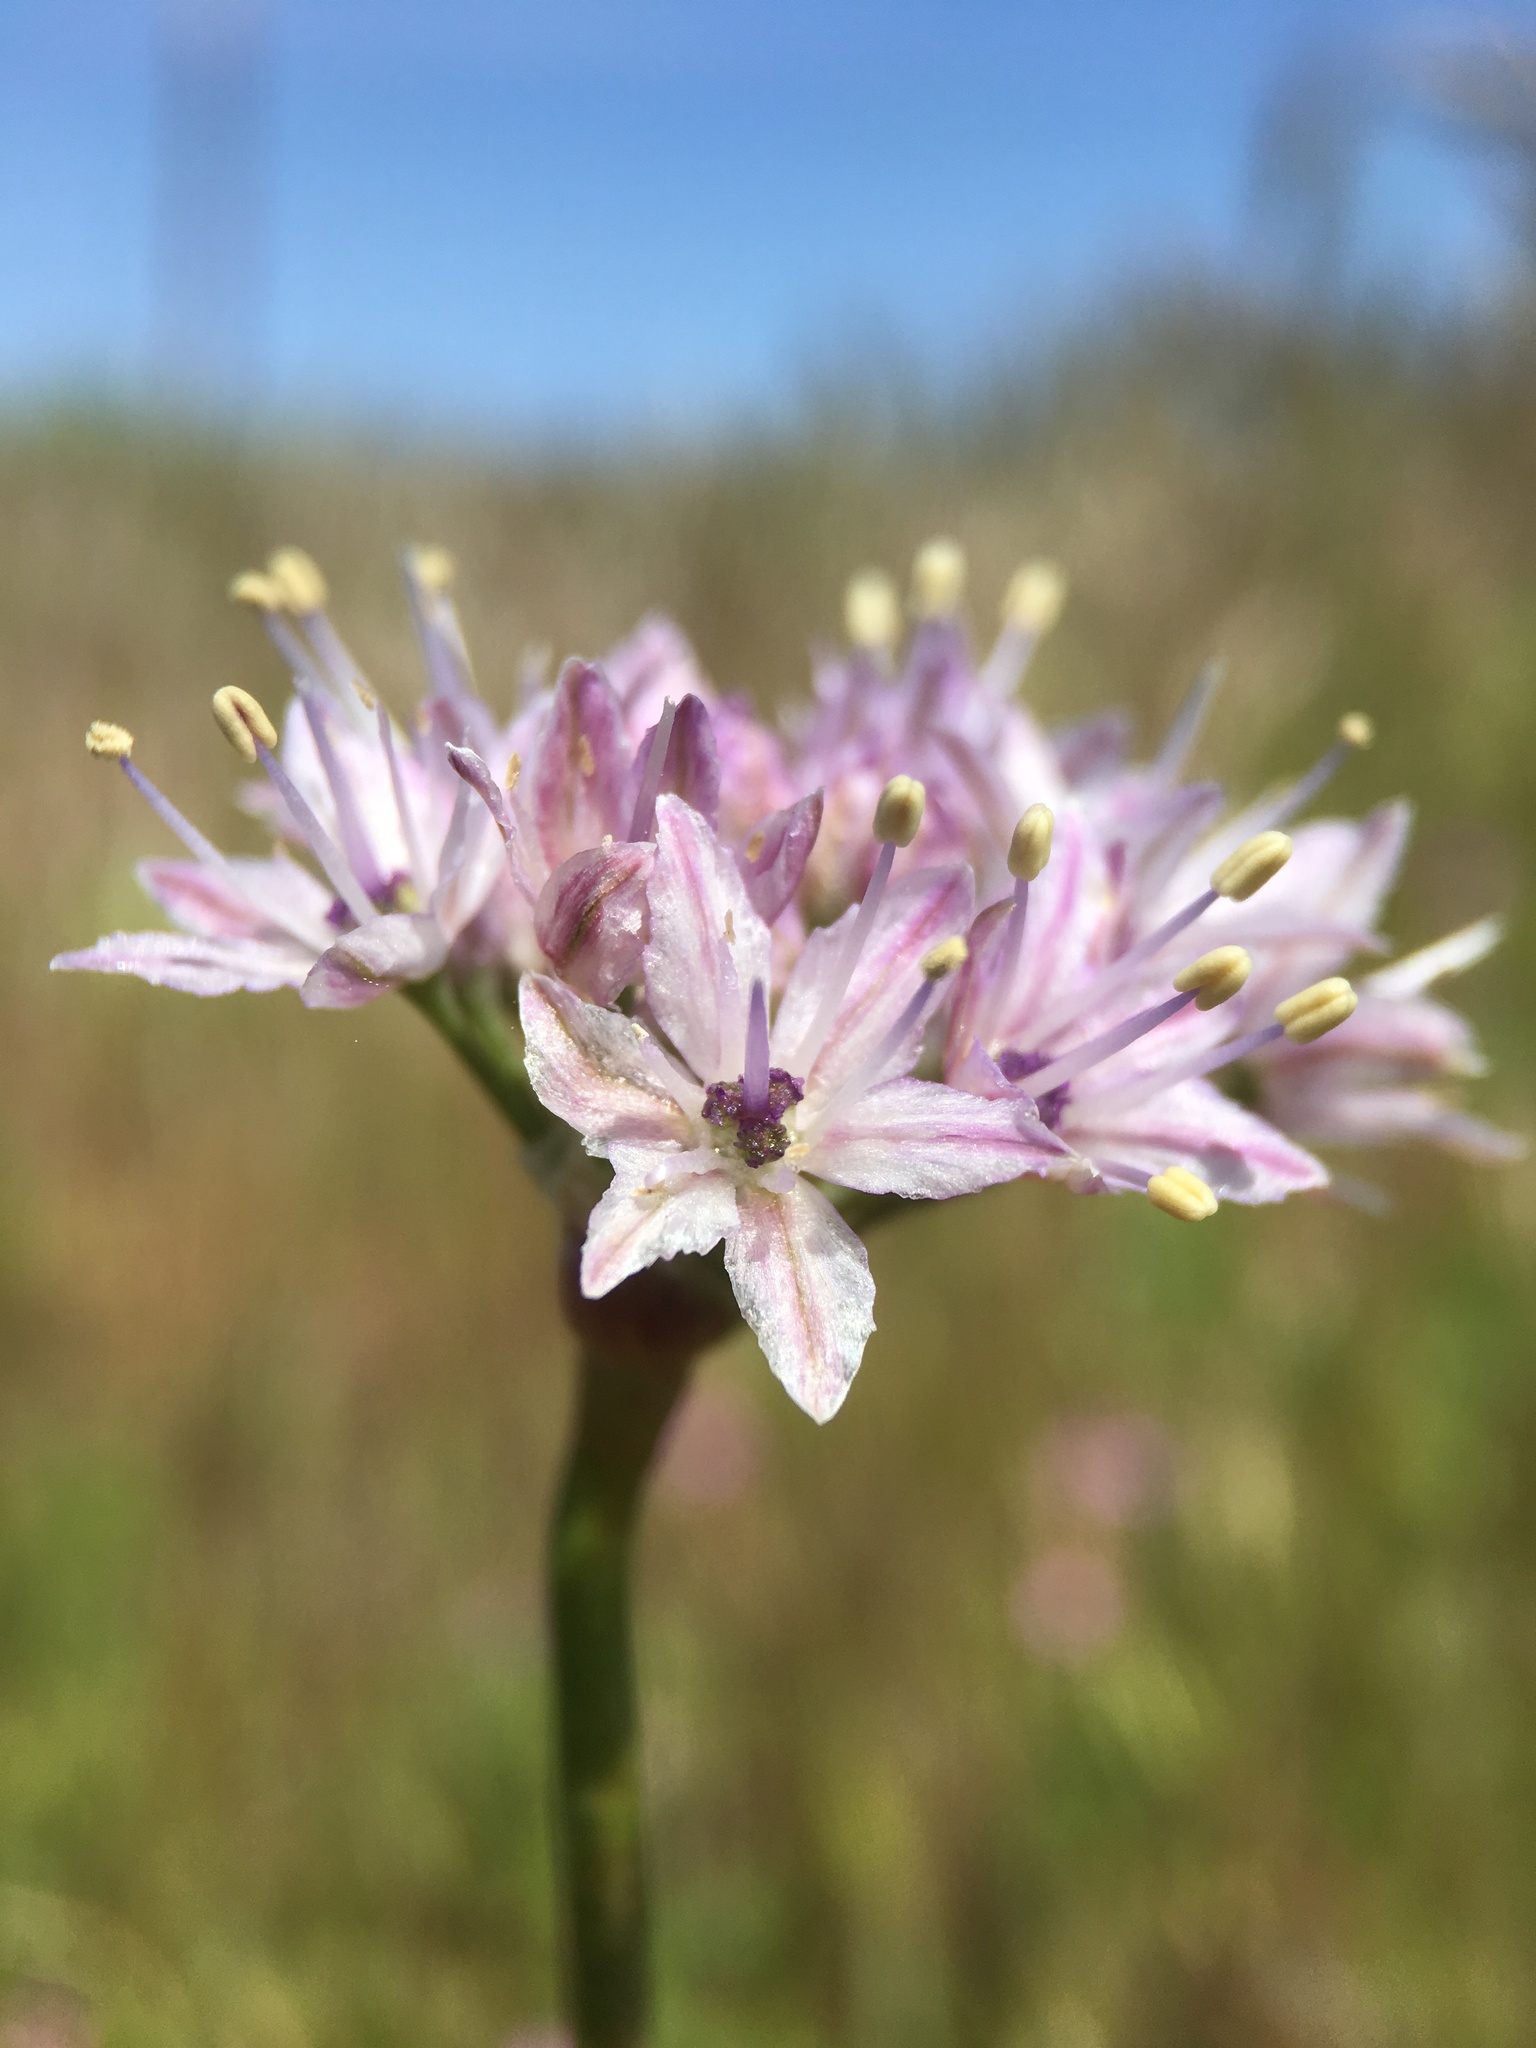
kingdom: Plantae
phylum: Tracheophyta
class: Liliopsida
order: Asparagales
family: Amaryllidaceae
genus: Allium
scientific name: Allium howellii
